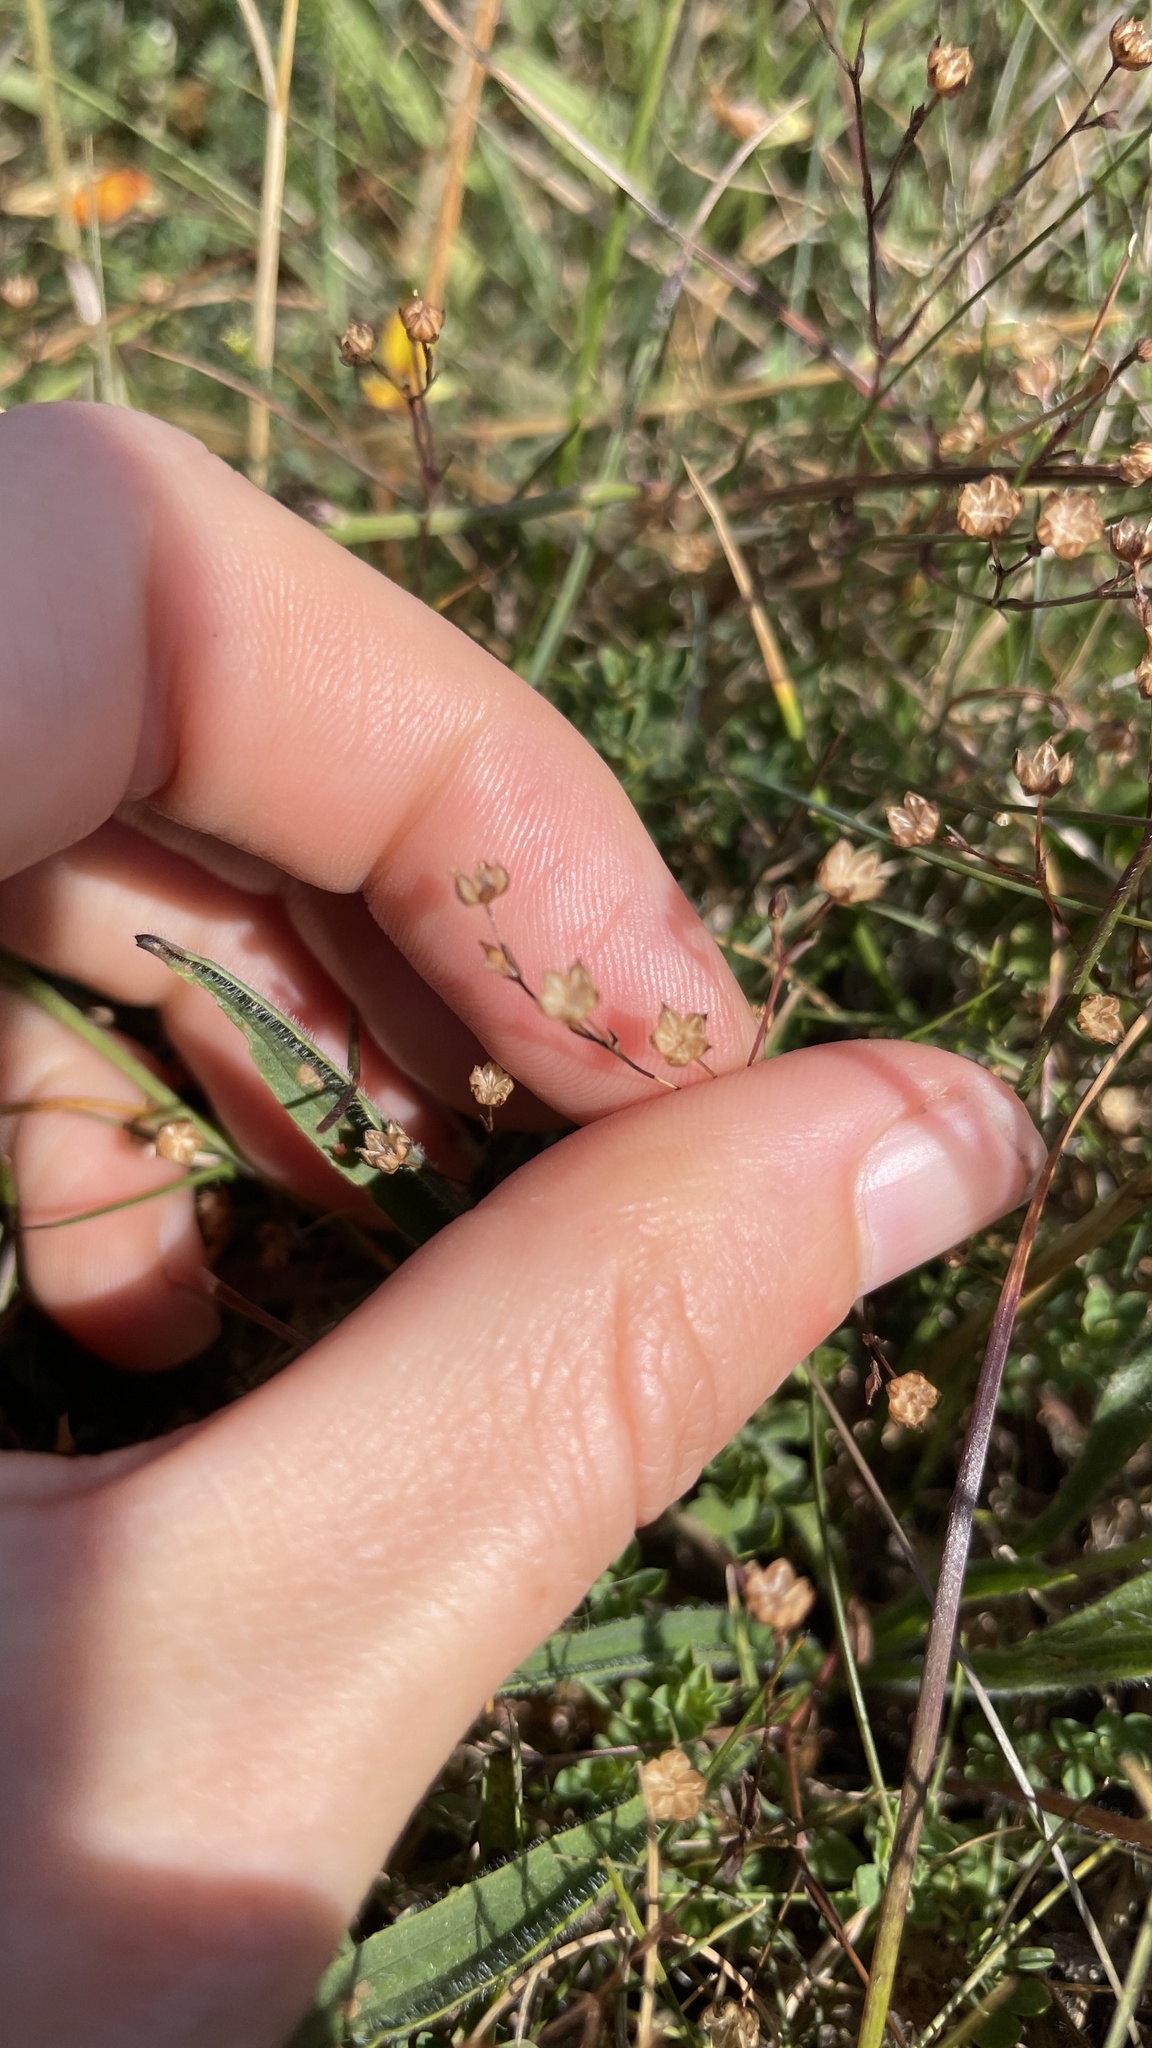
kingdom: Plantae
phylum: Tracheophyta
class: Magnoliopsida
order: Malpighiales
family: Linaceae
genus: Linum
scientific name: Linum catharticum
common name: Fairy flax
